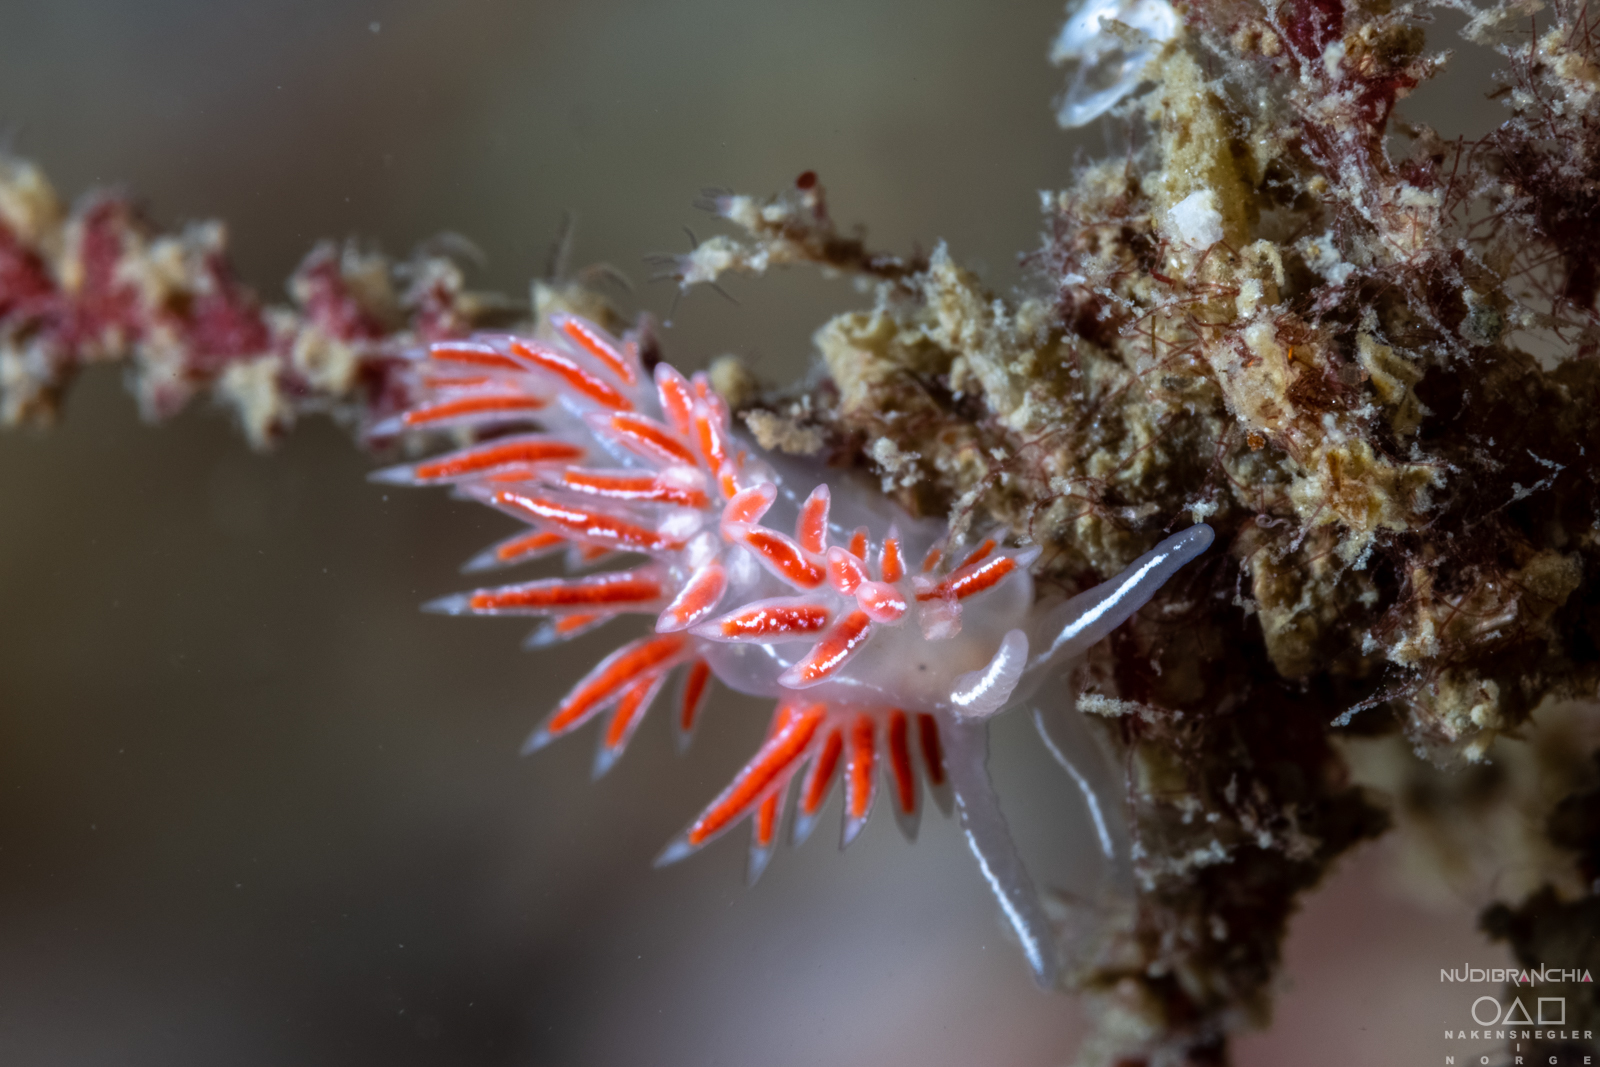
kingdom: Animalia
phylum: Mollusca
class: Gastropoda
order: Nudibranchia
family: Coryphellidae
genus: Coryphella
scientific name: Coryphella chriskaugei
